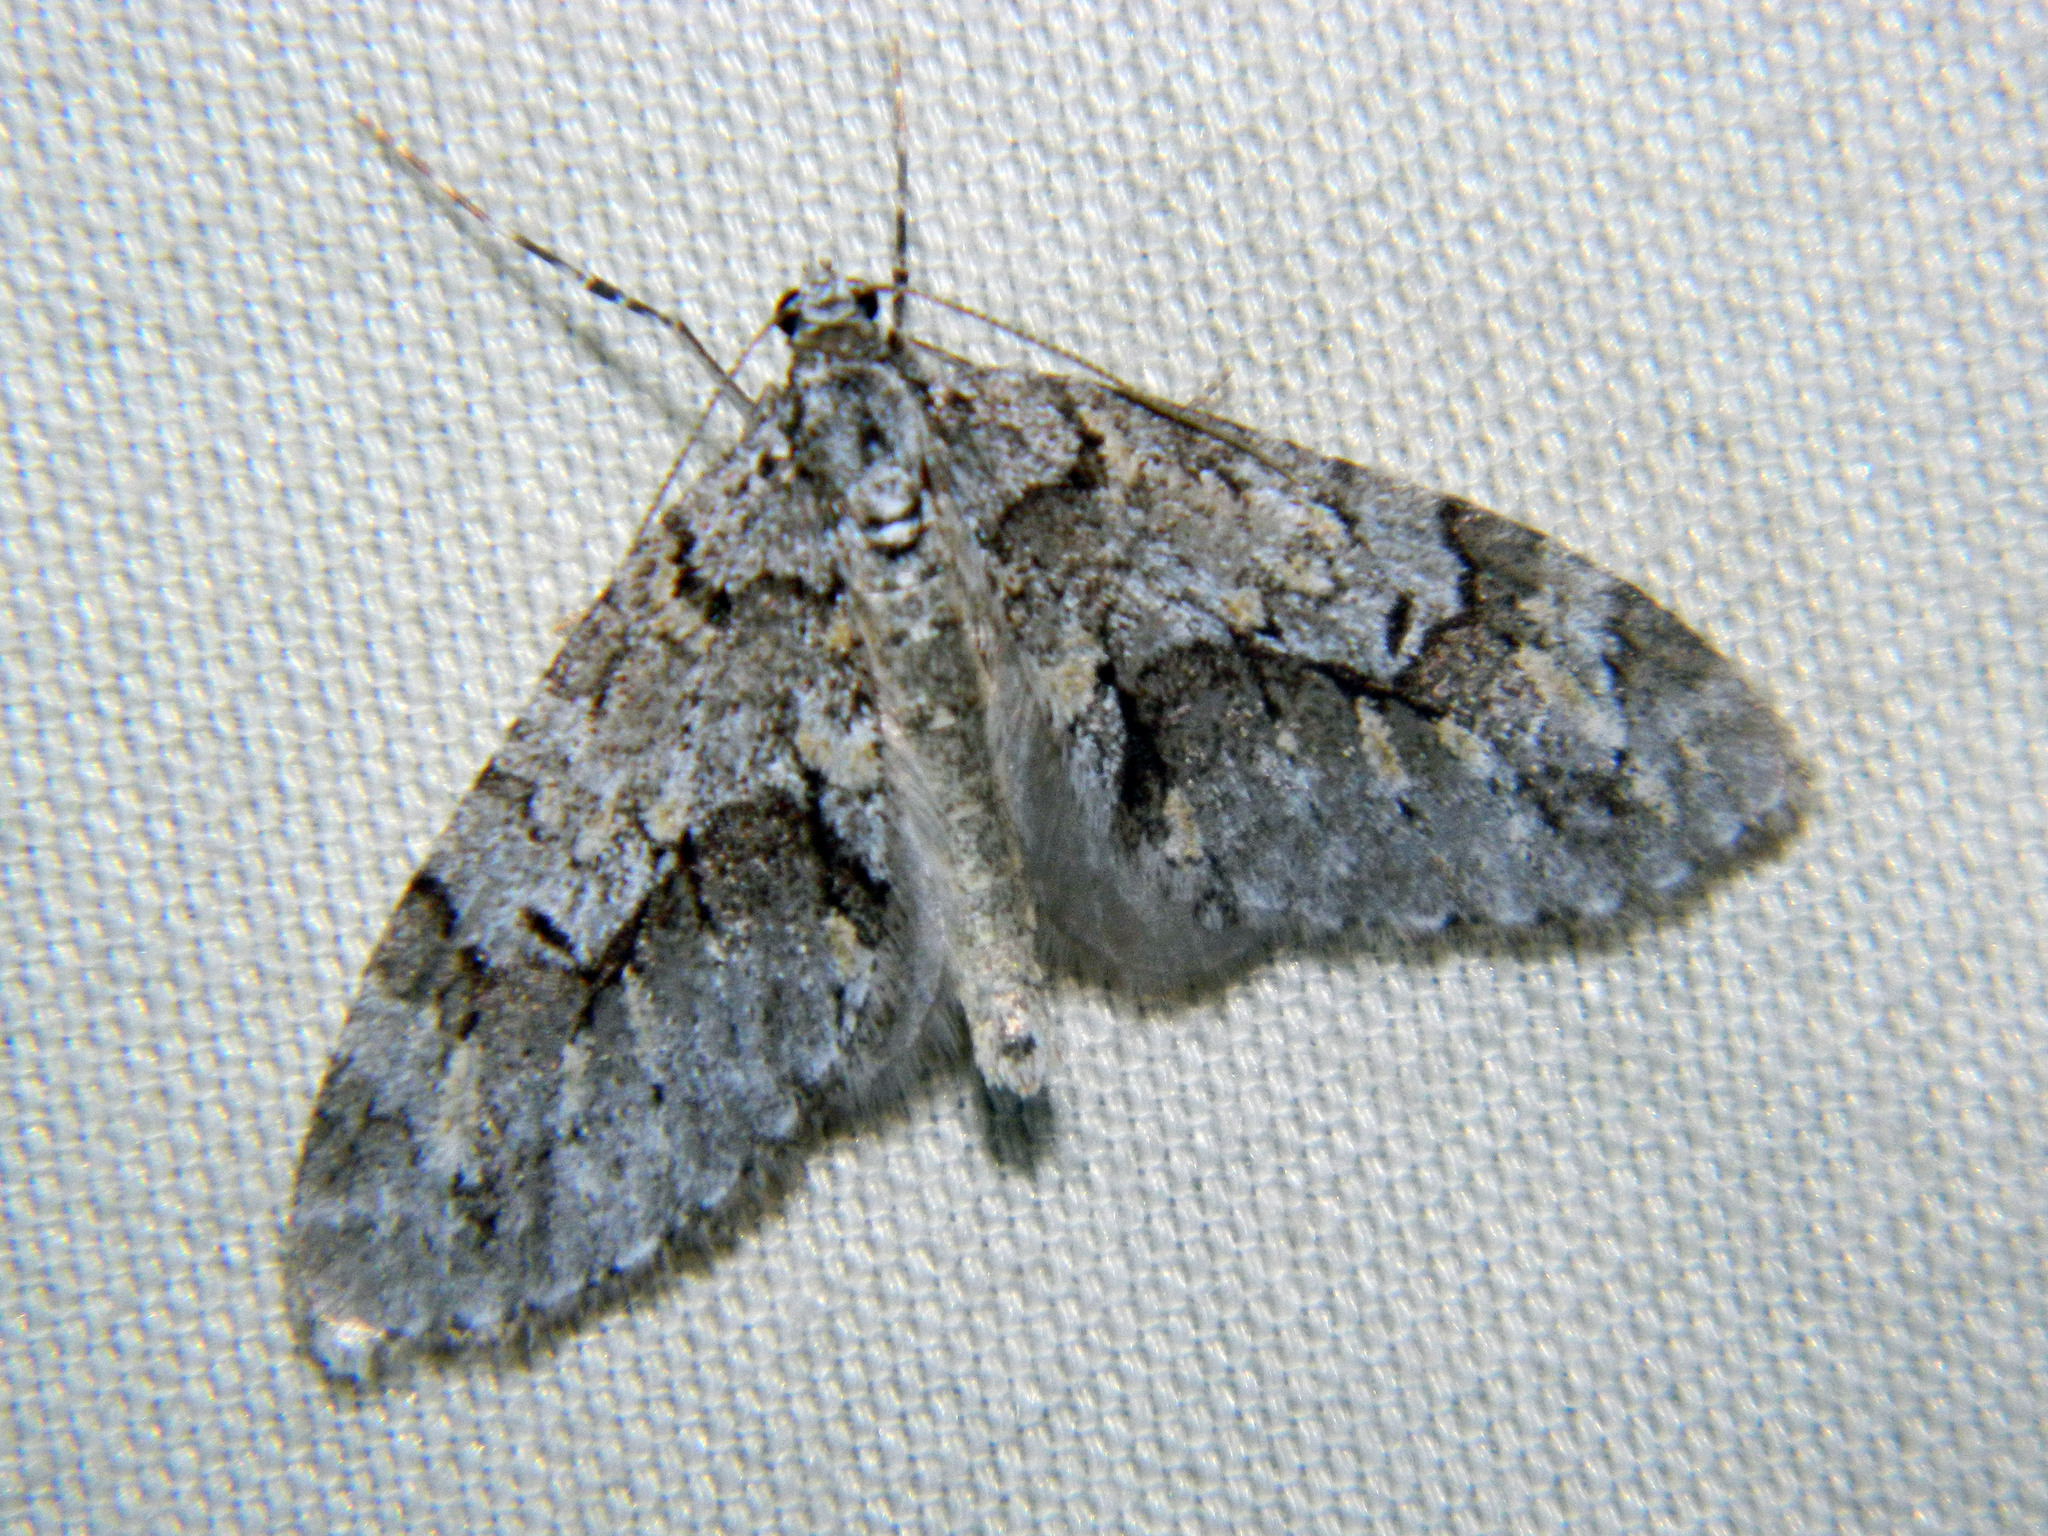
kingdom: Animalia
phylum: Arthropoda
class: Insecta
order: Lepidoptera
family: Geometridae
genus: Cladara
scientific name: Cladara limitaria
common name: Mottled gray carpet
